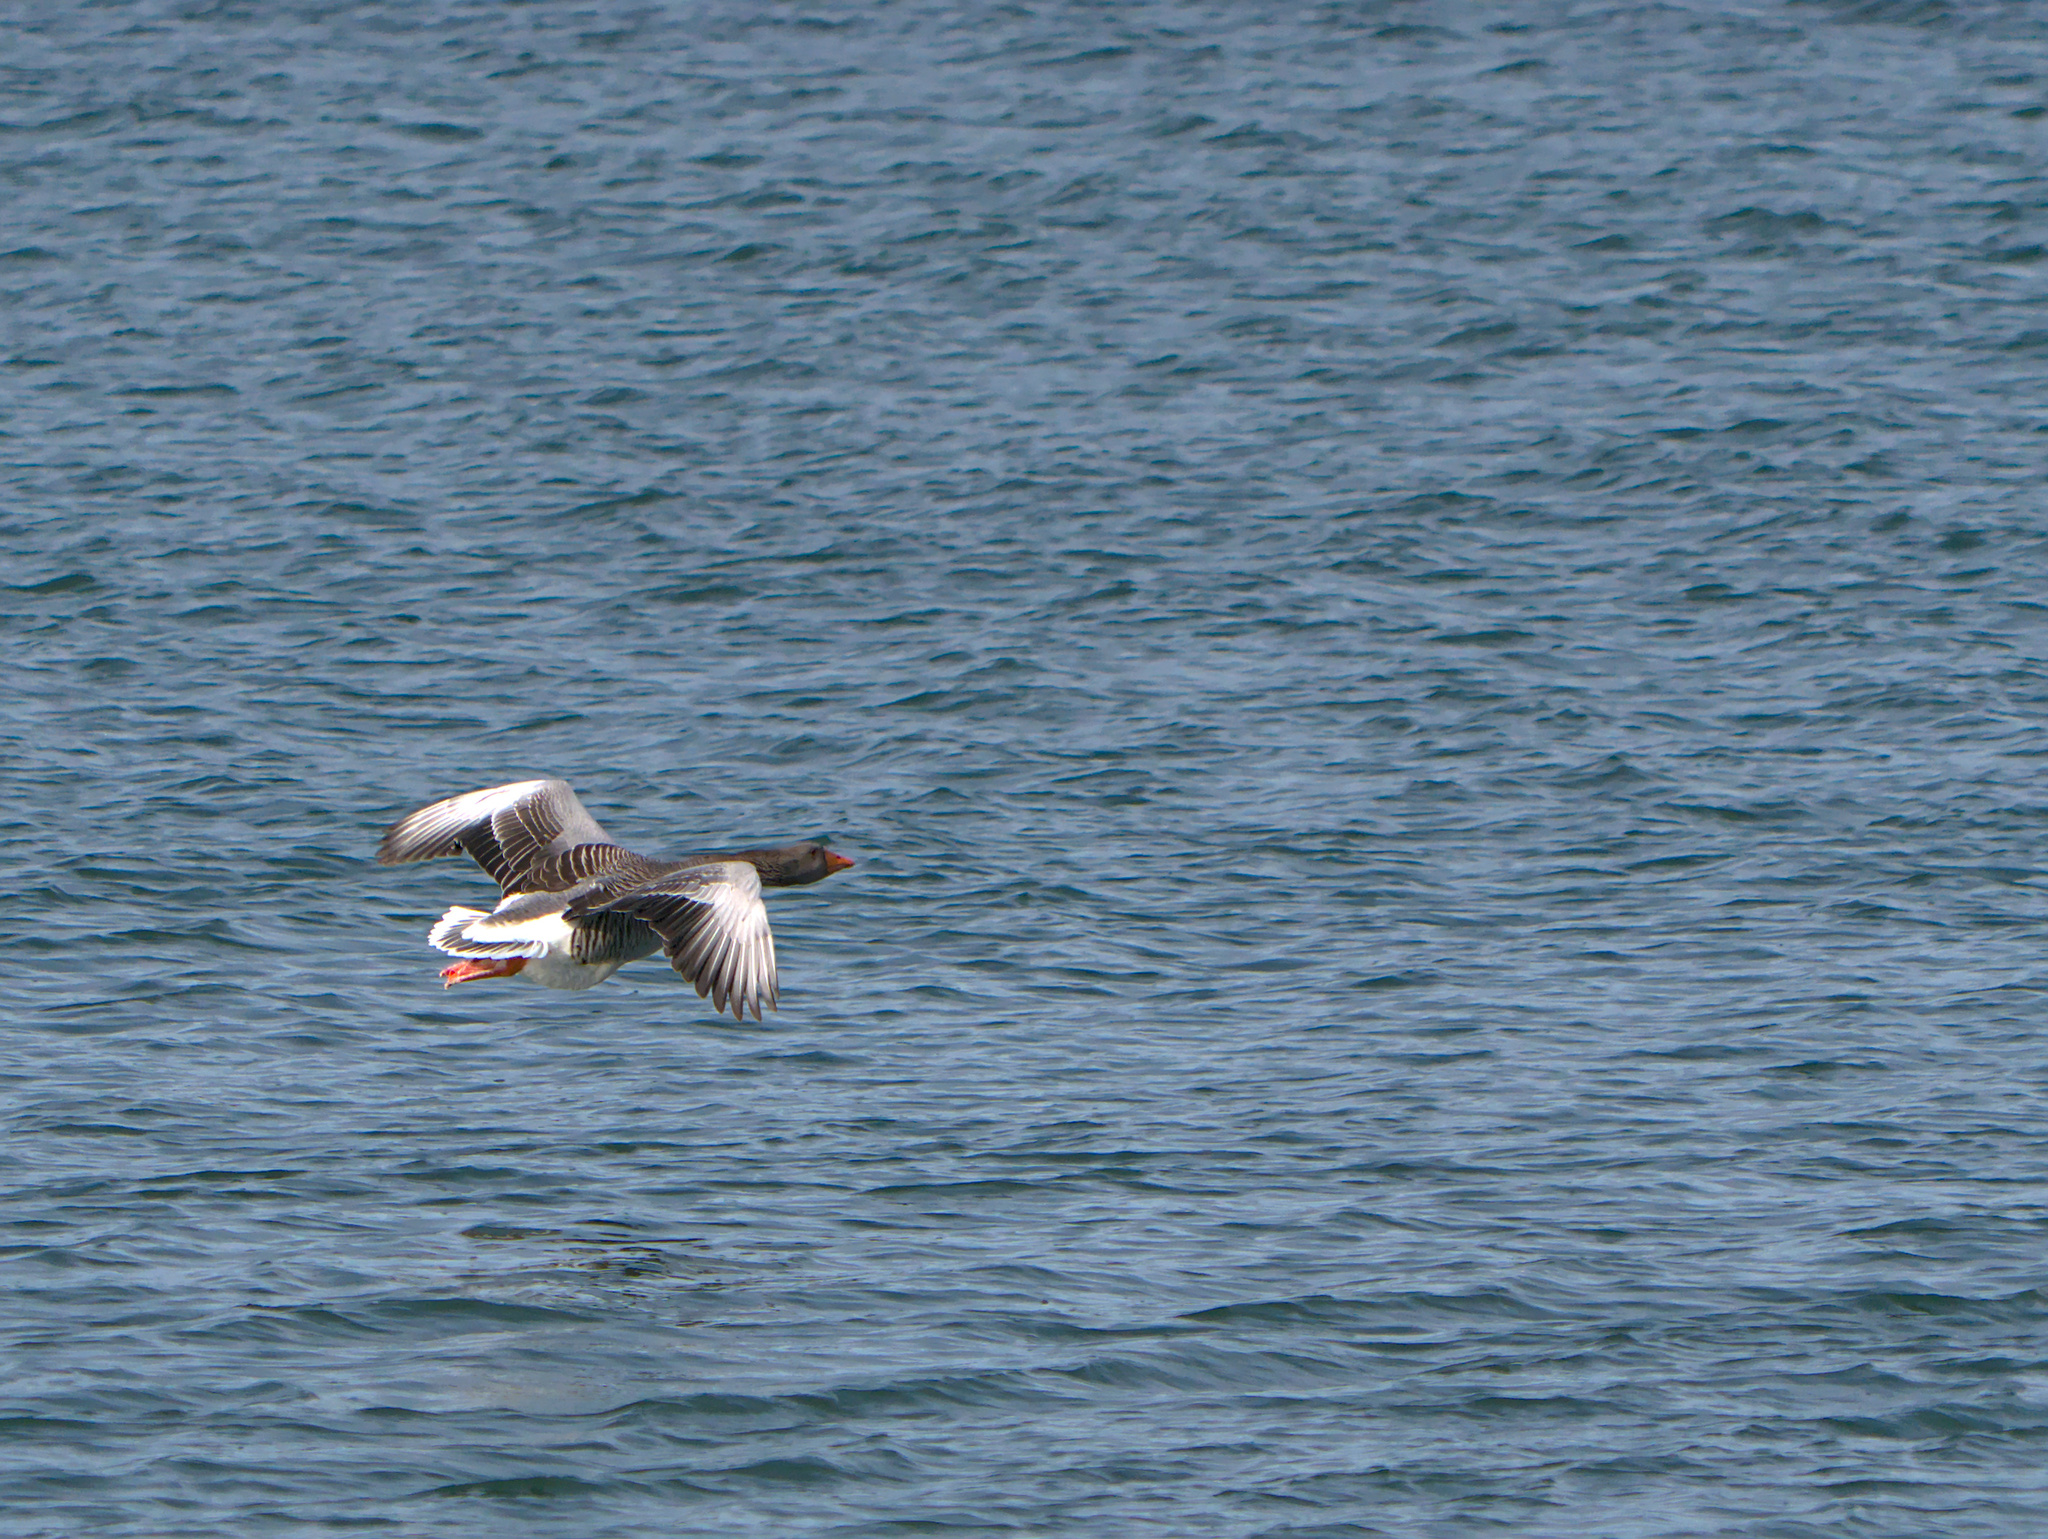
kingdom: Animalia
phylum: Chordata
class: Aves
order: Anseriformes
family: Anatidae
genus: Anser
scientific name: Anser anser
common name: Greylag goose
